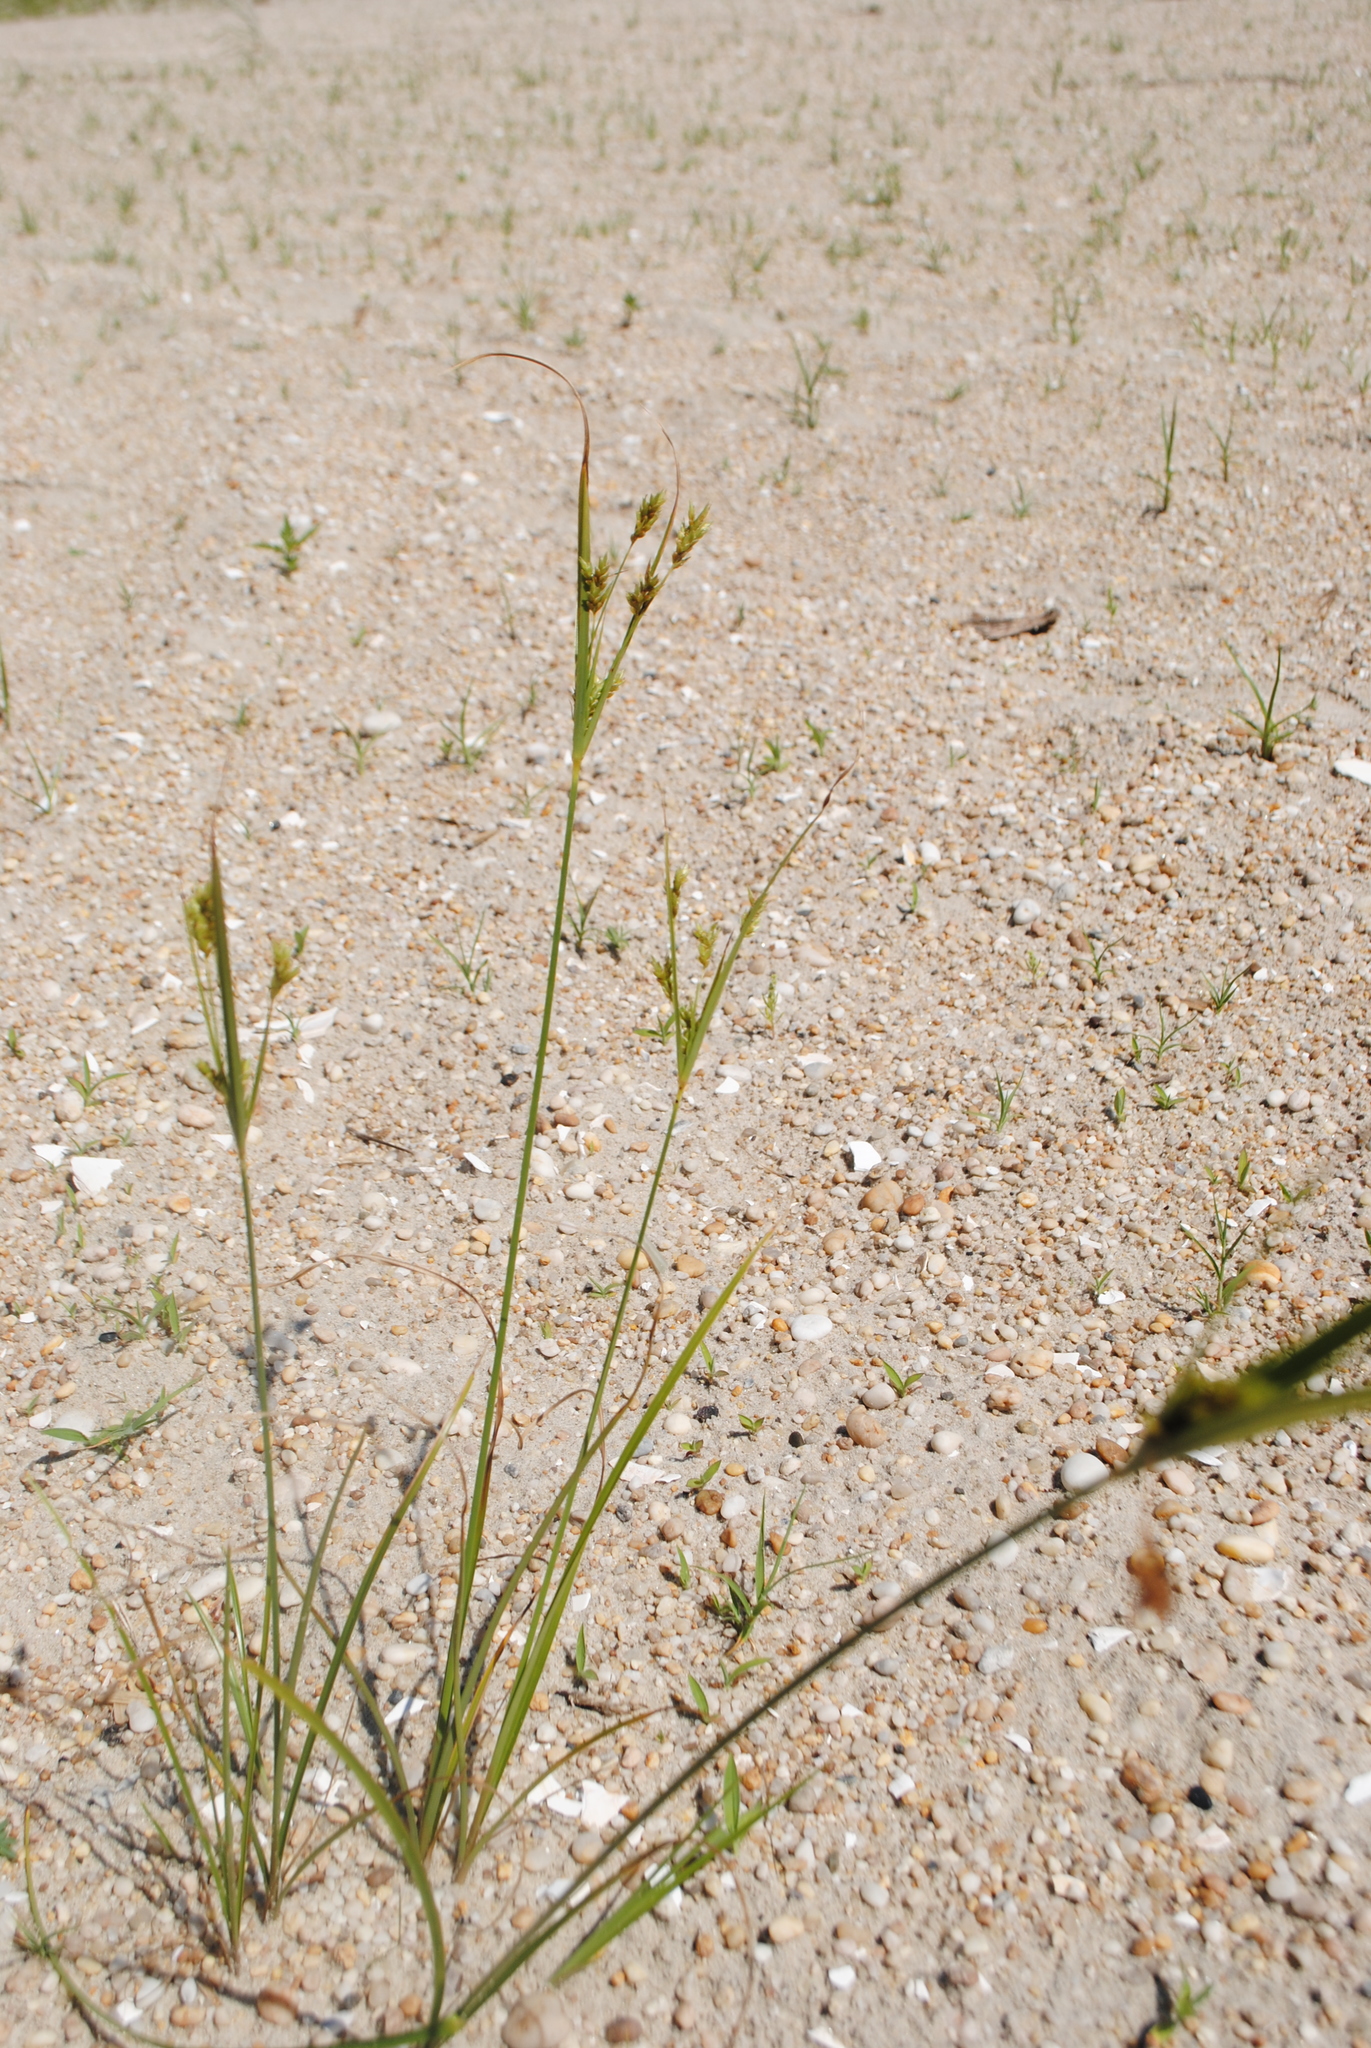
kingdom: Plantae
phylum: Tracheophyta
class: Liliopsida
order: Poales
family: Cyperaceae
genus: Cyperus
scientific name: Cyperus schweinitzii
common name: Schweinitz's cyperus
